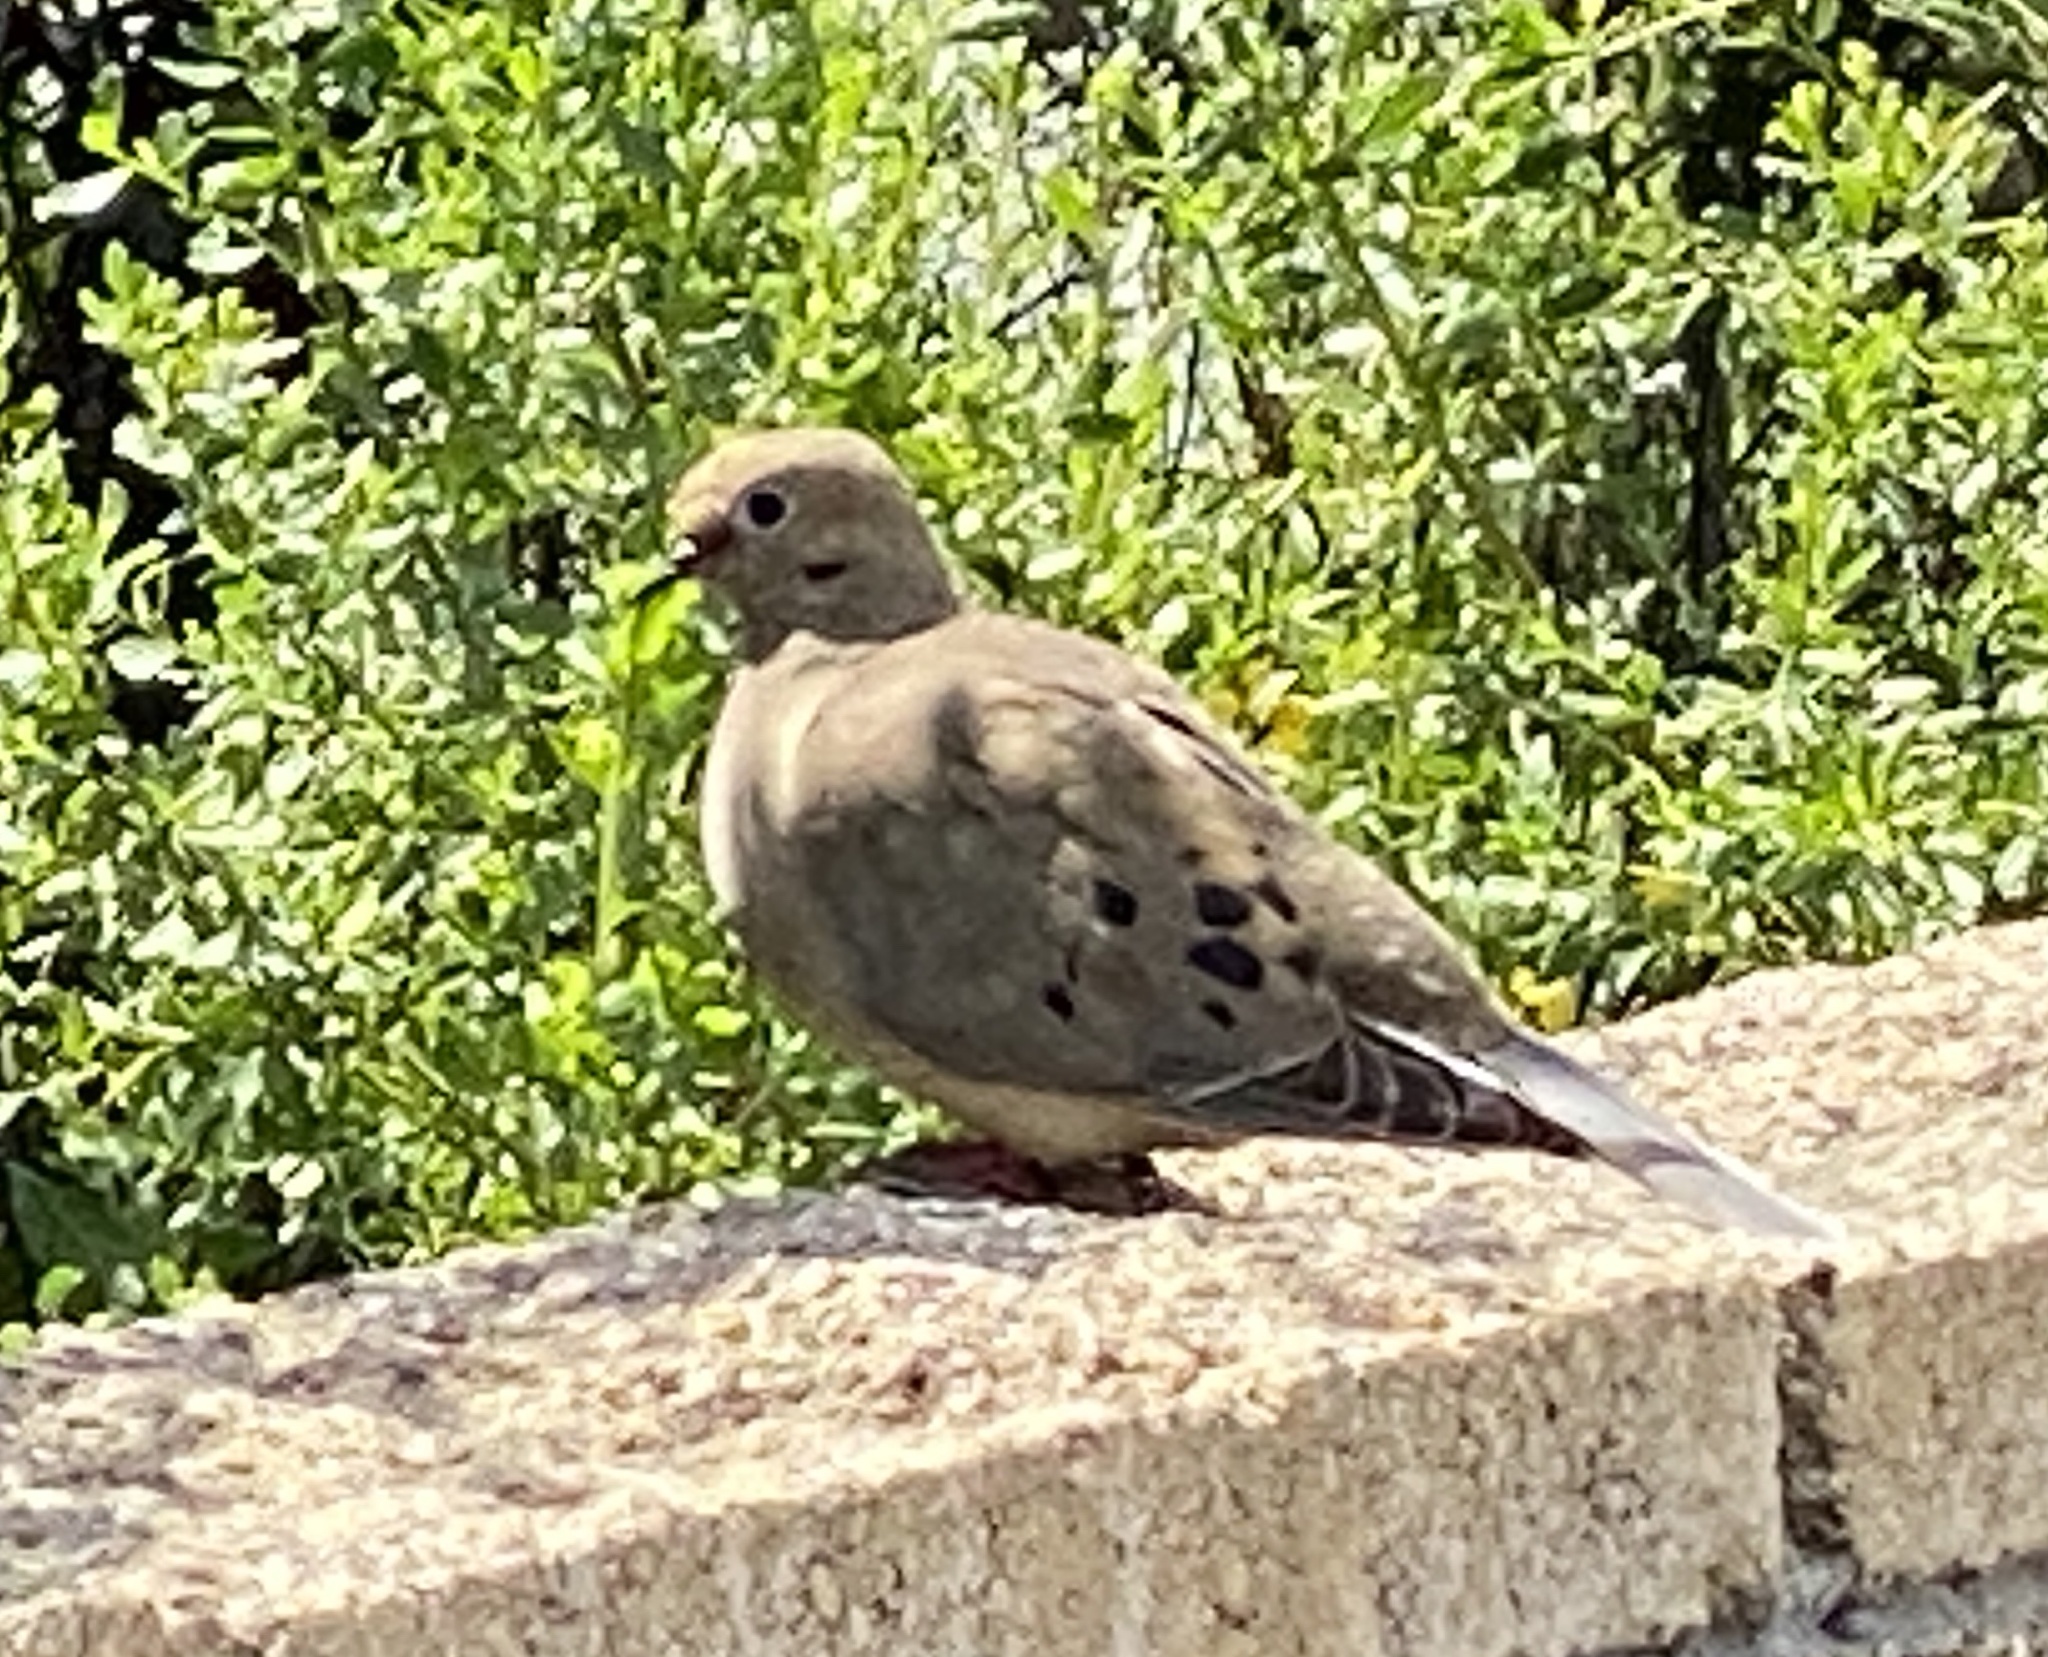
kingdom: Animalia
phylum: Chordata
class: Aves
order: Columbiformes
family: Columbidae
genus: Zenaida
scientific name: Zenaida macroura
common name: Mourning dove
